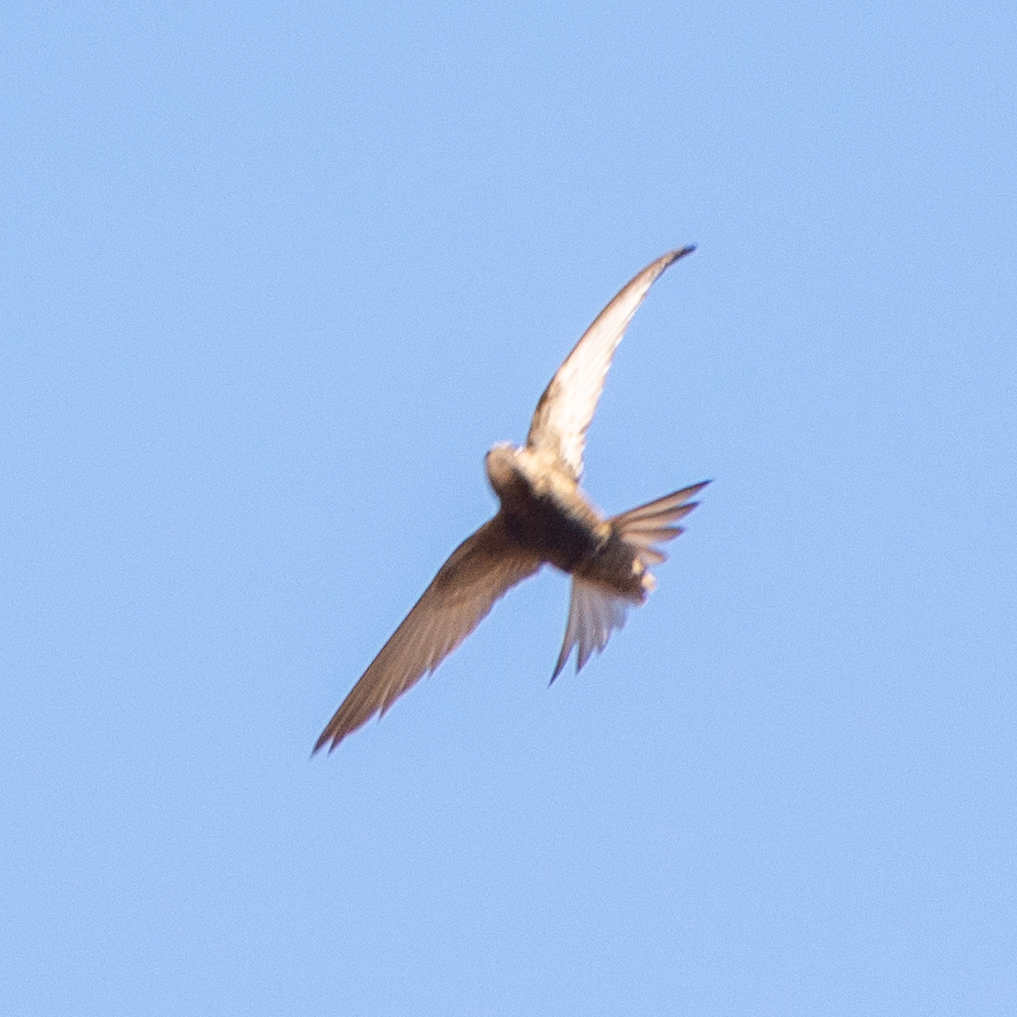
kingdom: Animalia
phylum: Chordata
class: Aves
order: Apodiformes
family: Apodidae
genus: Apus
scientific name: Apus apus
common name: Common swift
